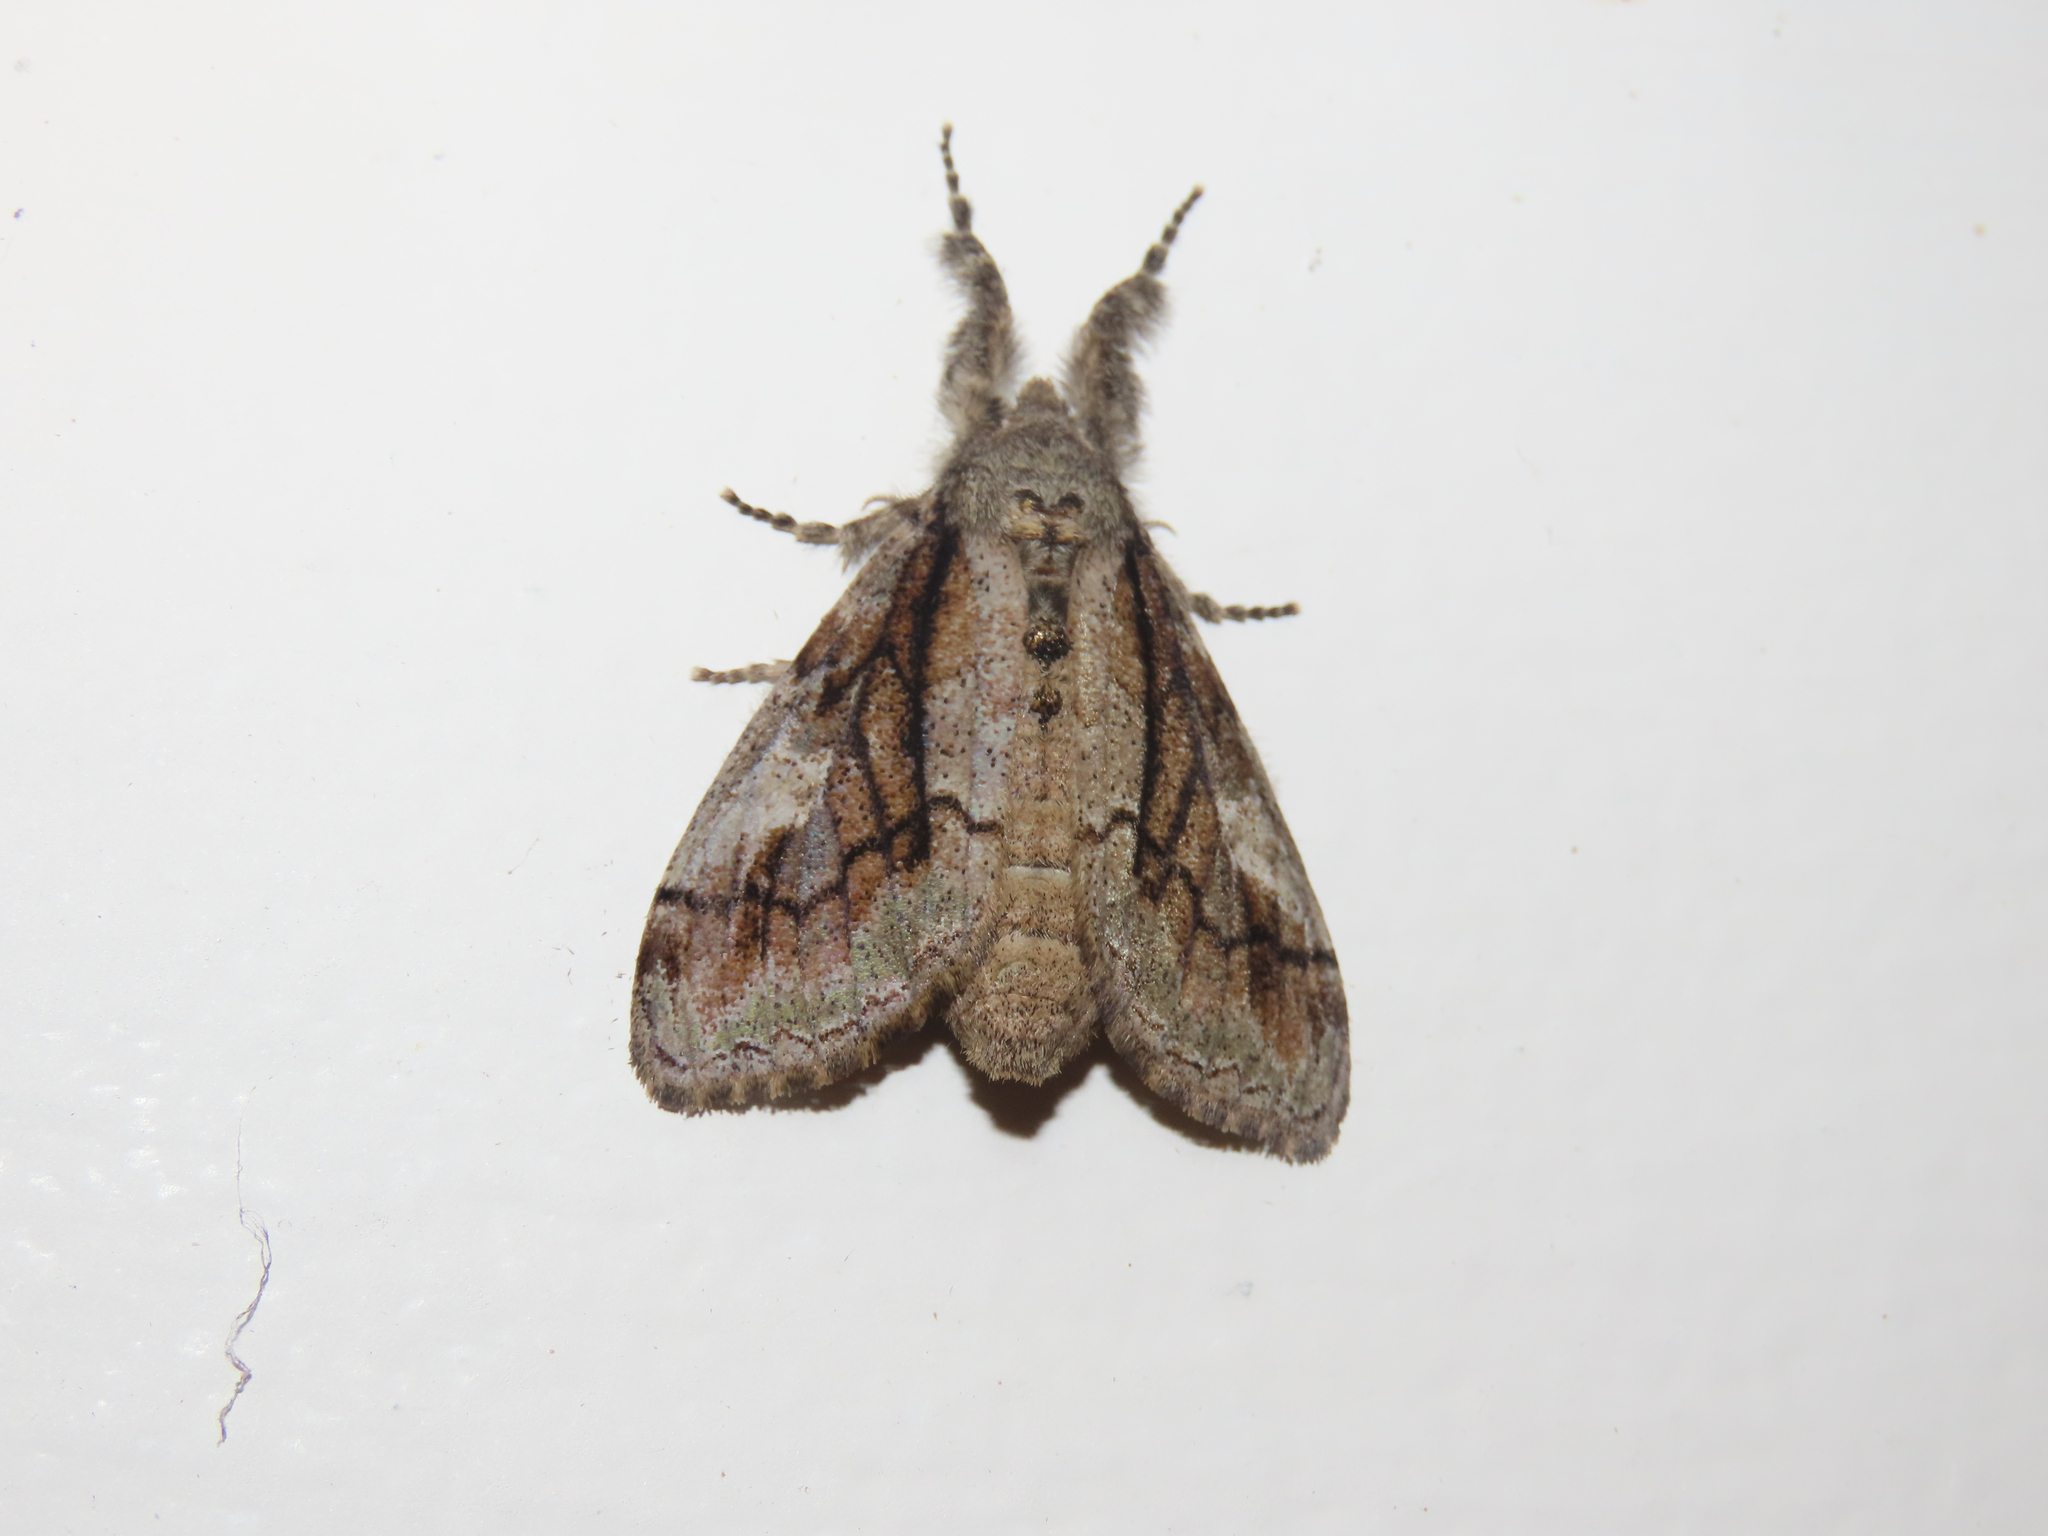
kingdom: Animalia
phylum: Arthropoda
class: Insecta
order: Lepidoptera
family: Erebidae
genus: Dasychira
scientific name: Dasychira obliquata
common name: Streaked tussock moth
